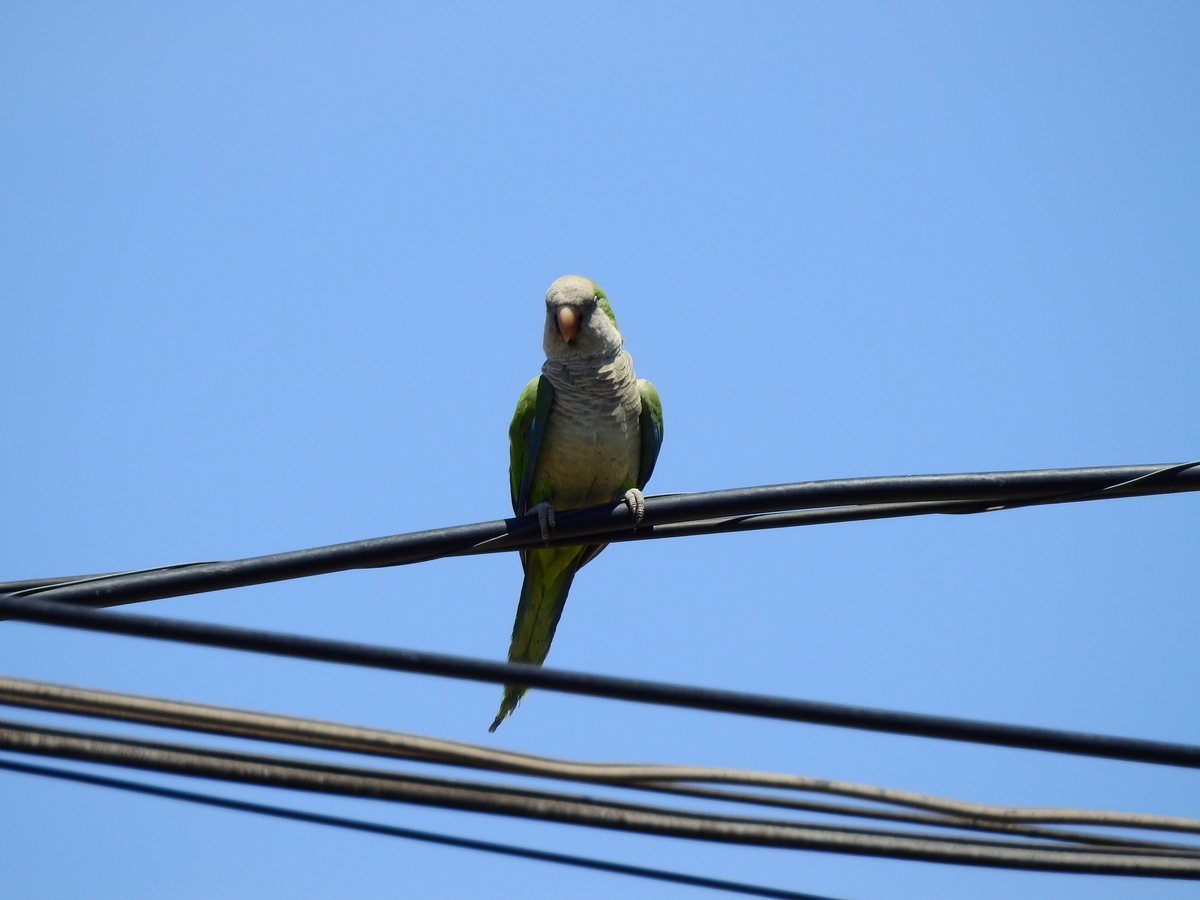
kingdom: Animalia
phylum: Chordata
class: Aves
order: Psittaciformes
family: Psittacidae
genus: Myiopsitta
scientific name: Myiopsitta monachus
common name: Monk parakeet
